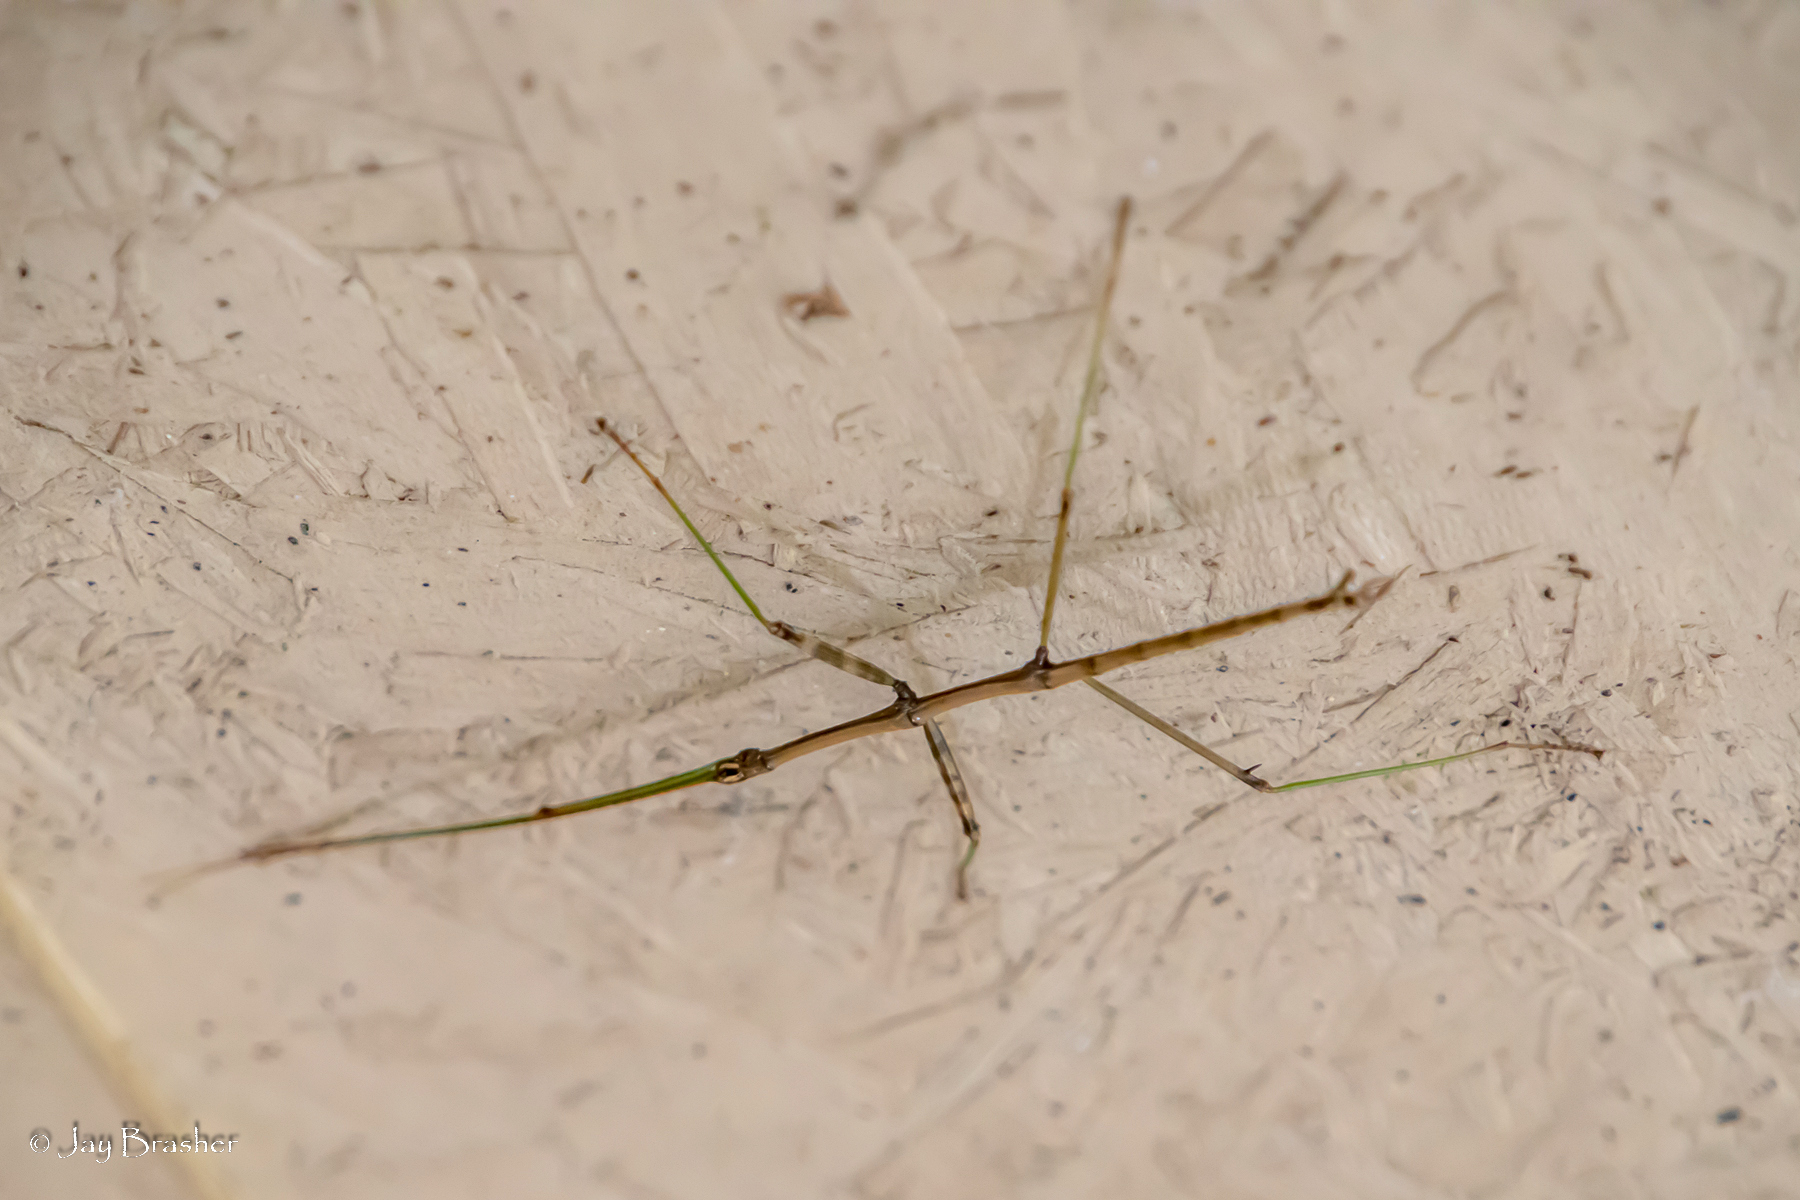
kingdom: Animalia
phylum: Arthropoda
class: Insecta
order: Phasmida
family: Diapheromeridae
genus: Diapheromera
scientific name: Diapheromera femorata
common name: Common american walkingstick
